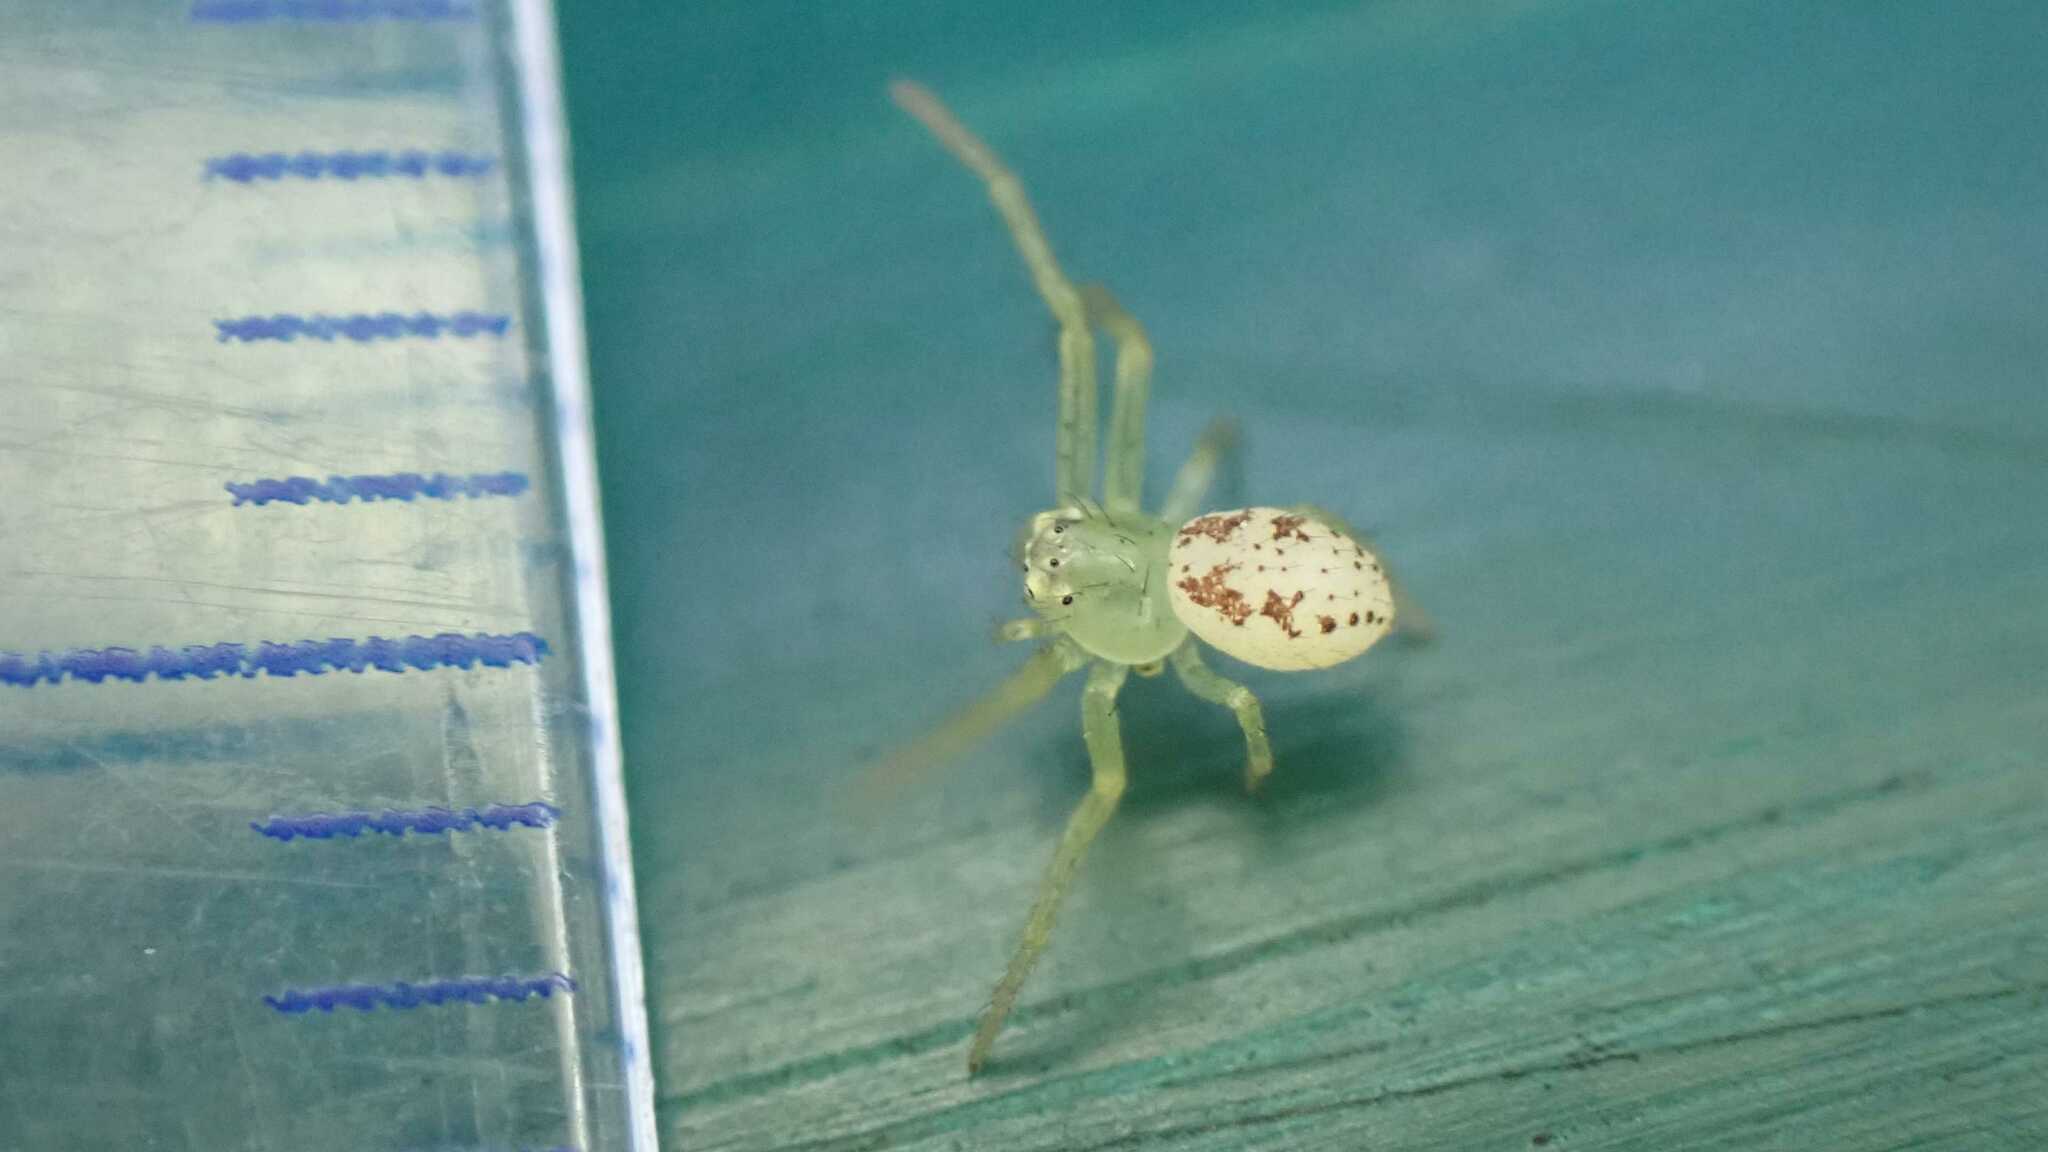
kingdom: Animalia
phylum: Arthropoda
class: Arachnida
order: Araneae
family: Thomisidae
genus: Diaea
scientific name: Diaea dorsata
